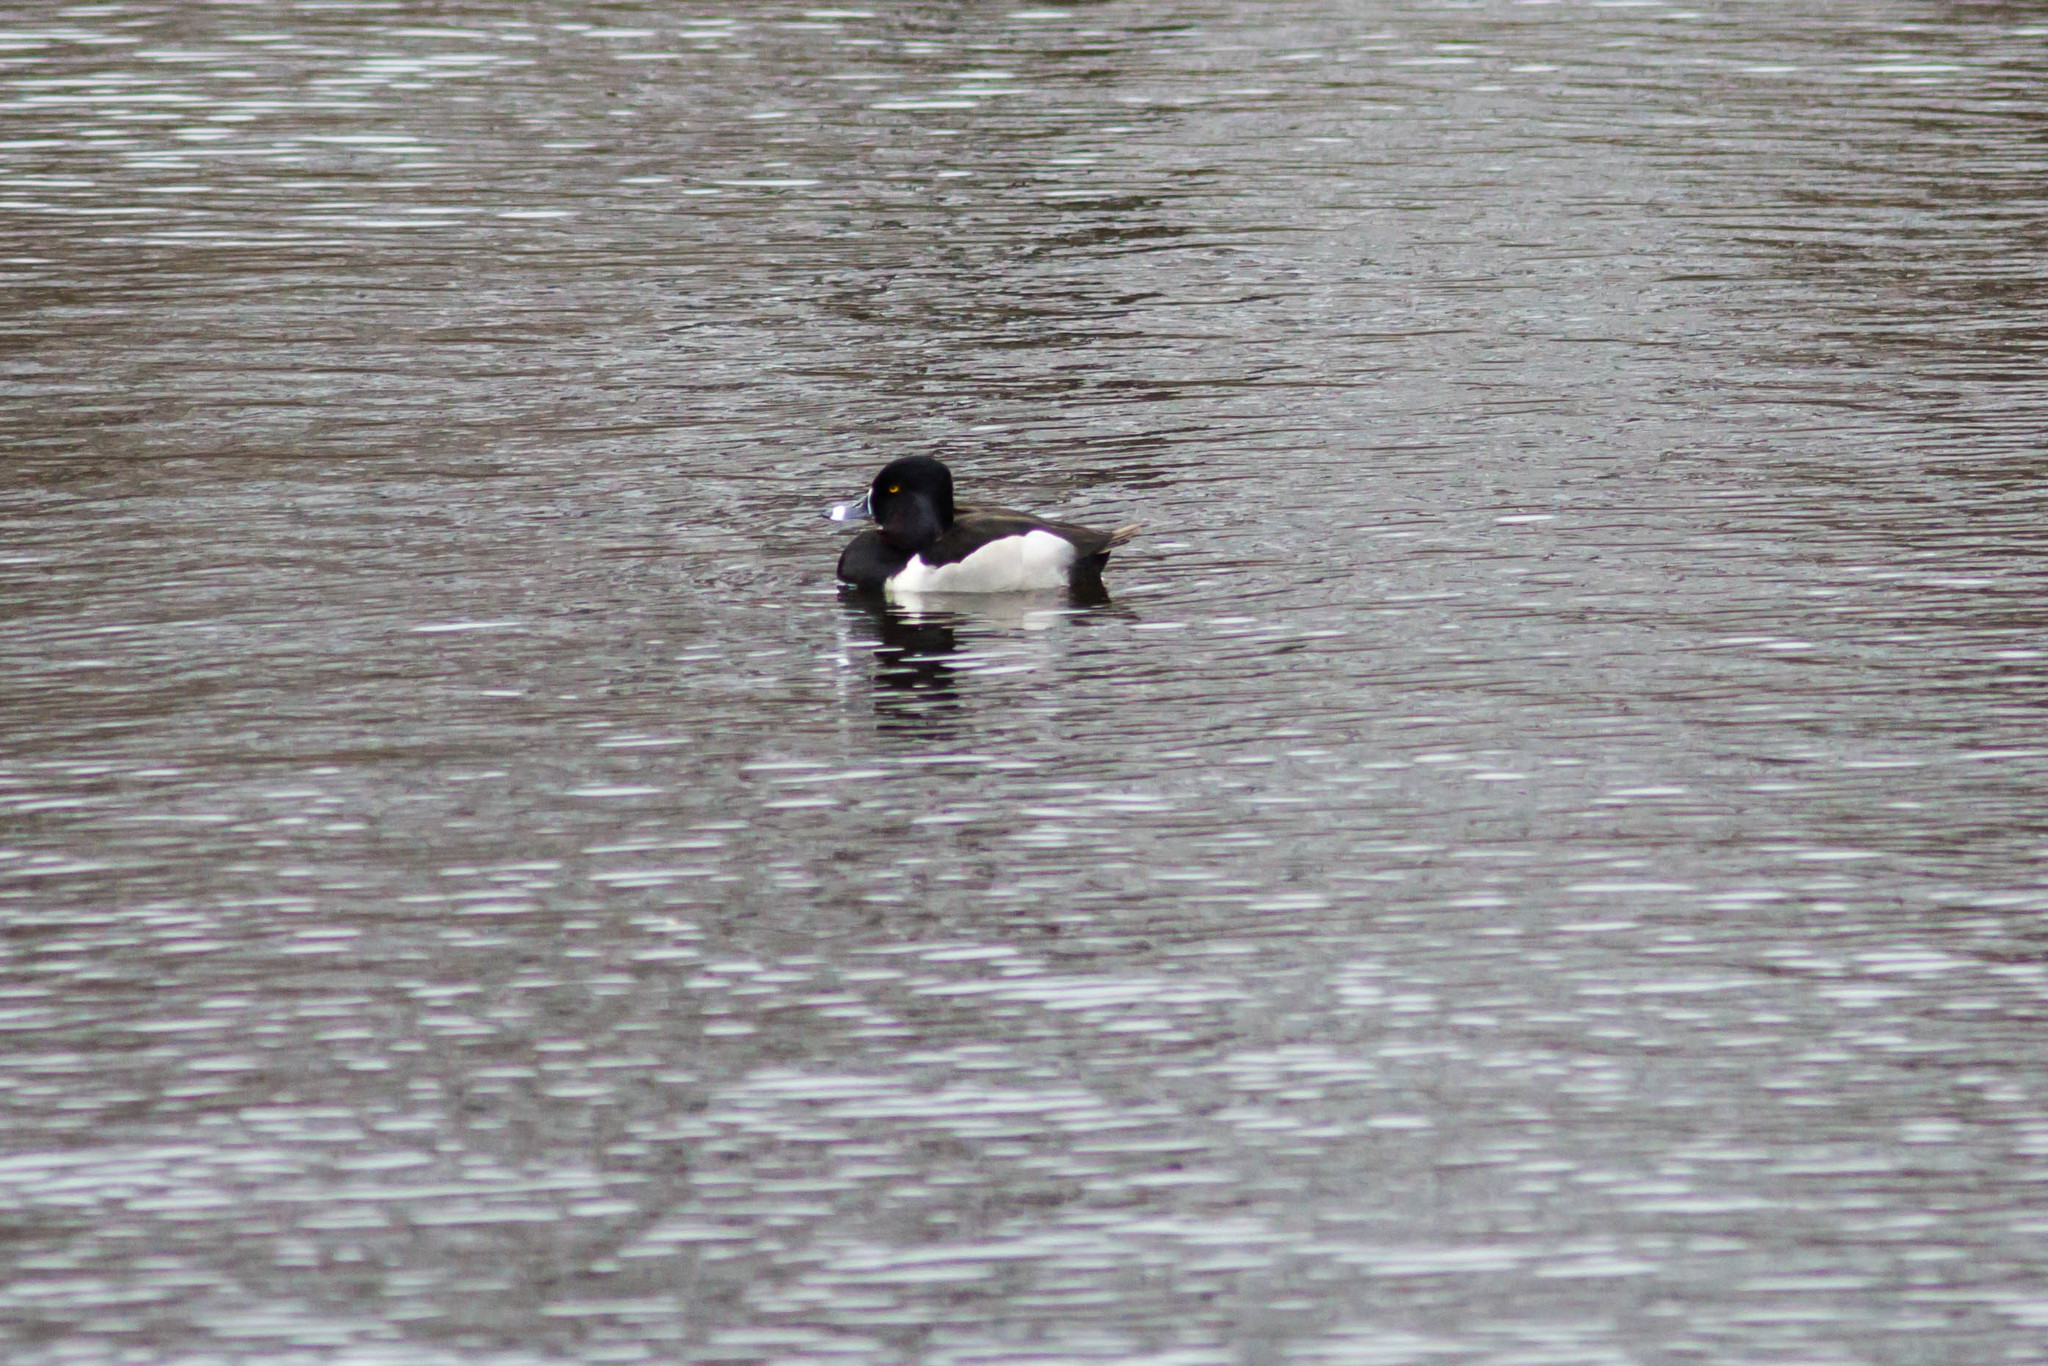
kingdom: Animalia
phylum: Chordata
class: Aves
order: Anseriformes
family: Anatidae
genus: Aythya
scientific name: Aythya collaris
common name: Ring-necked duck
